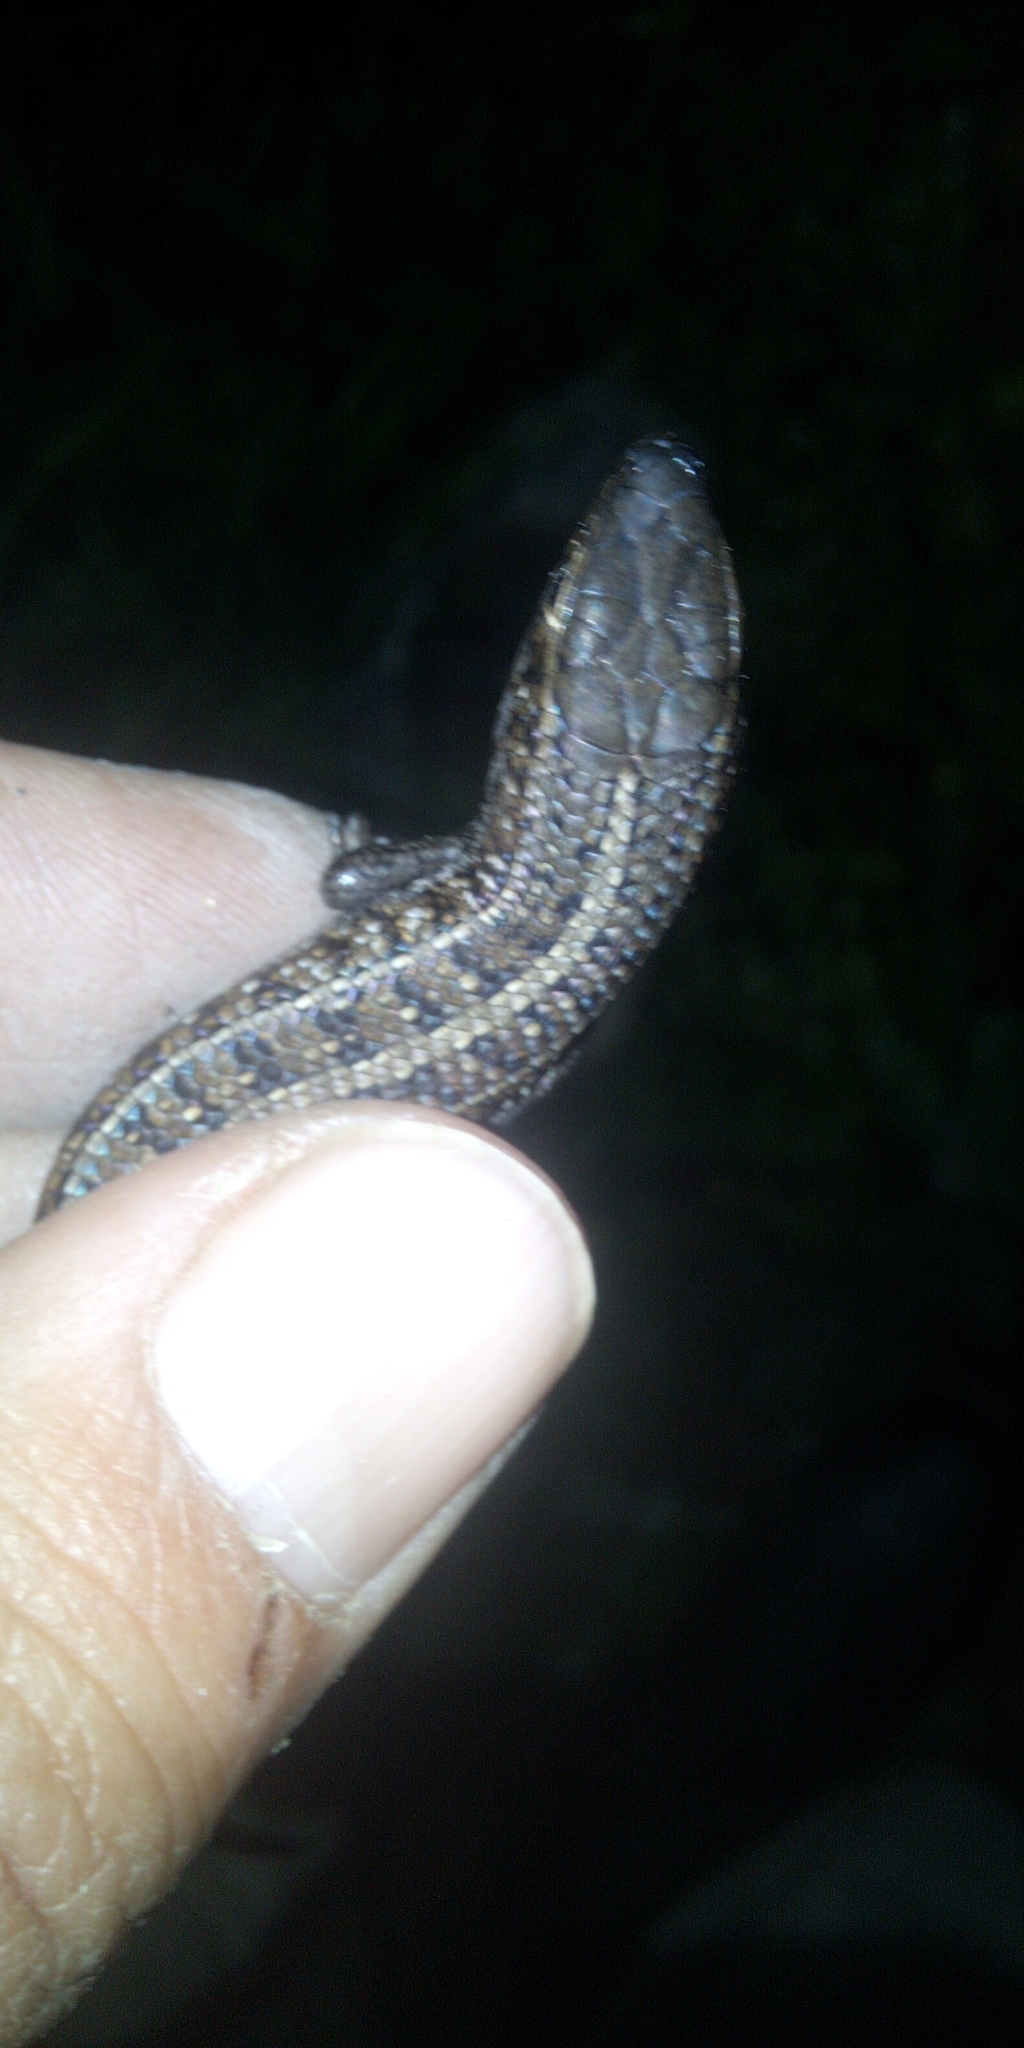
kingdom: Animalia
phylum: Chordata
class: Squamata
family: Scincidae
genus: Trachylepis
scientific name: Trachylepis capensis
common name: Cape skink
